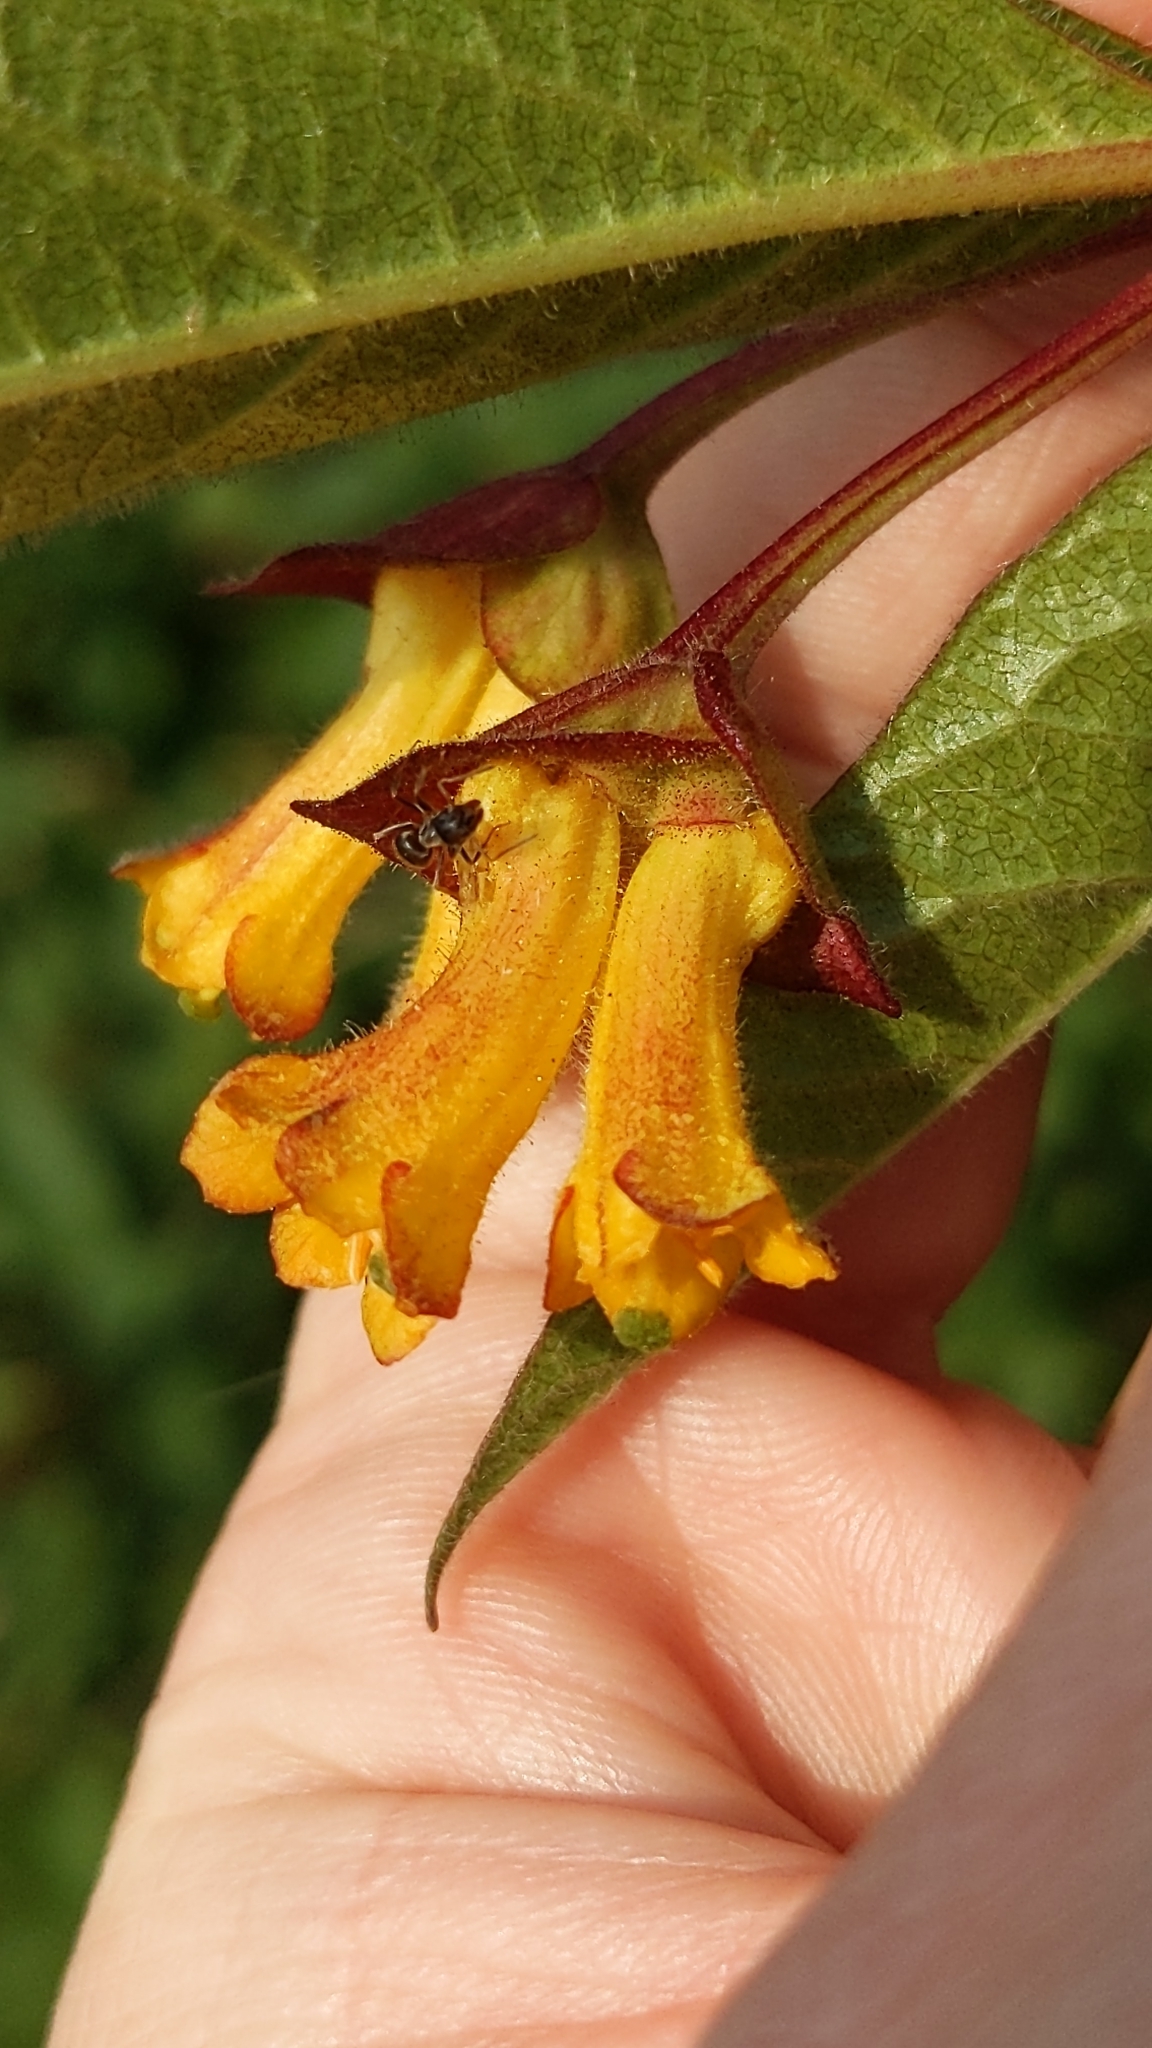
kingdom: Plantae
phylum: Tracheophyta
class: Magnoliopsida
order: Dipsacales
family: Caprifoliaceae
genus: Lonicera
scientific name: Lonicera involucrata
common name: Californian honeysuckle
